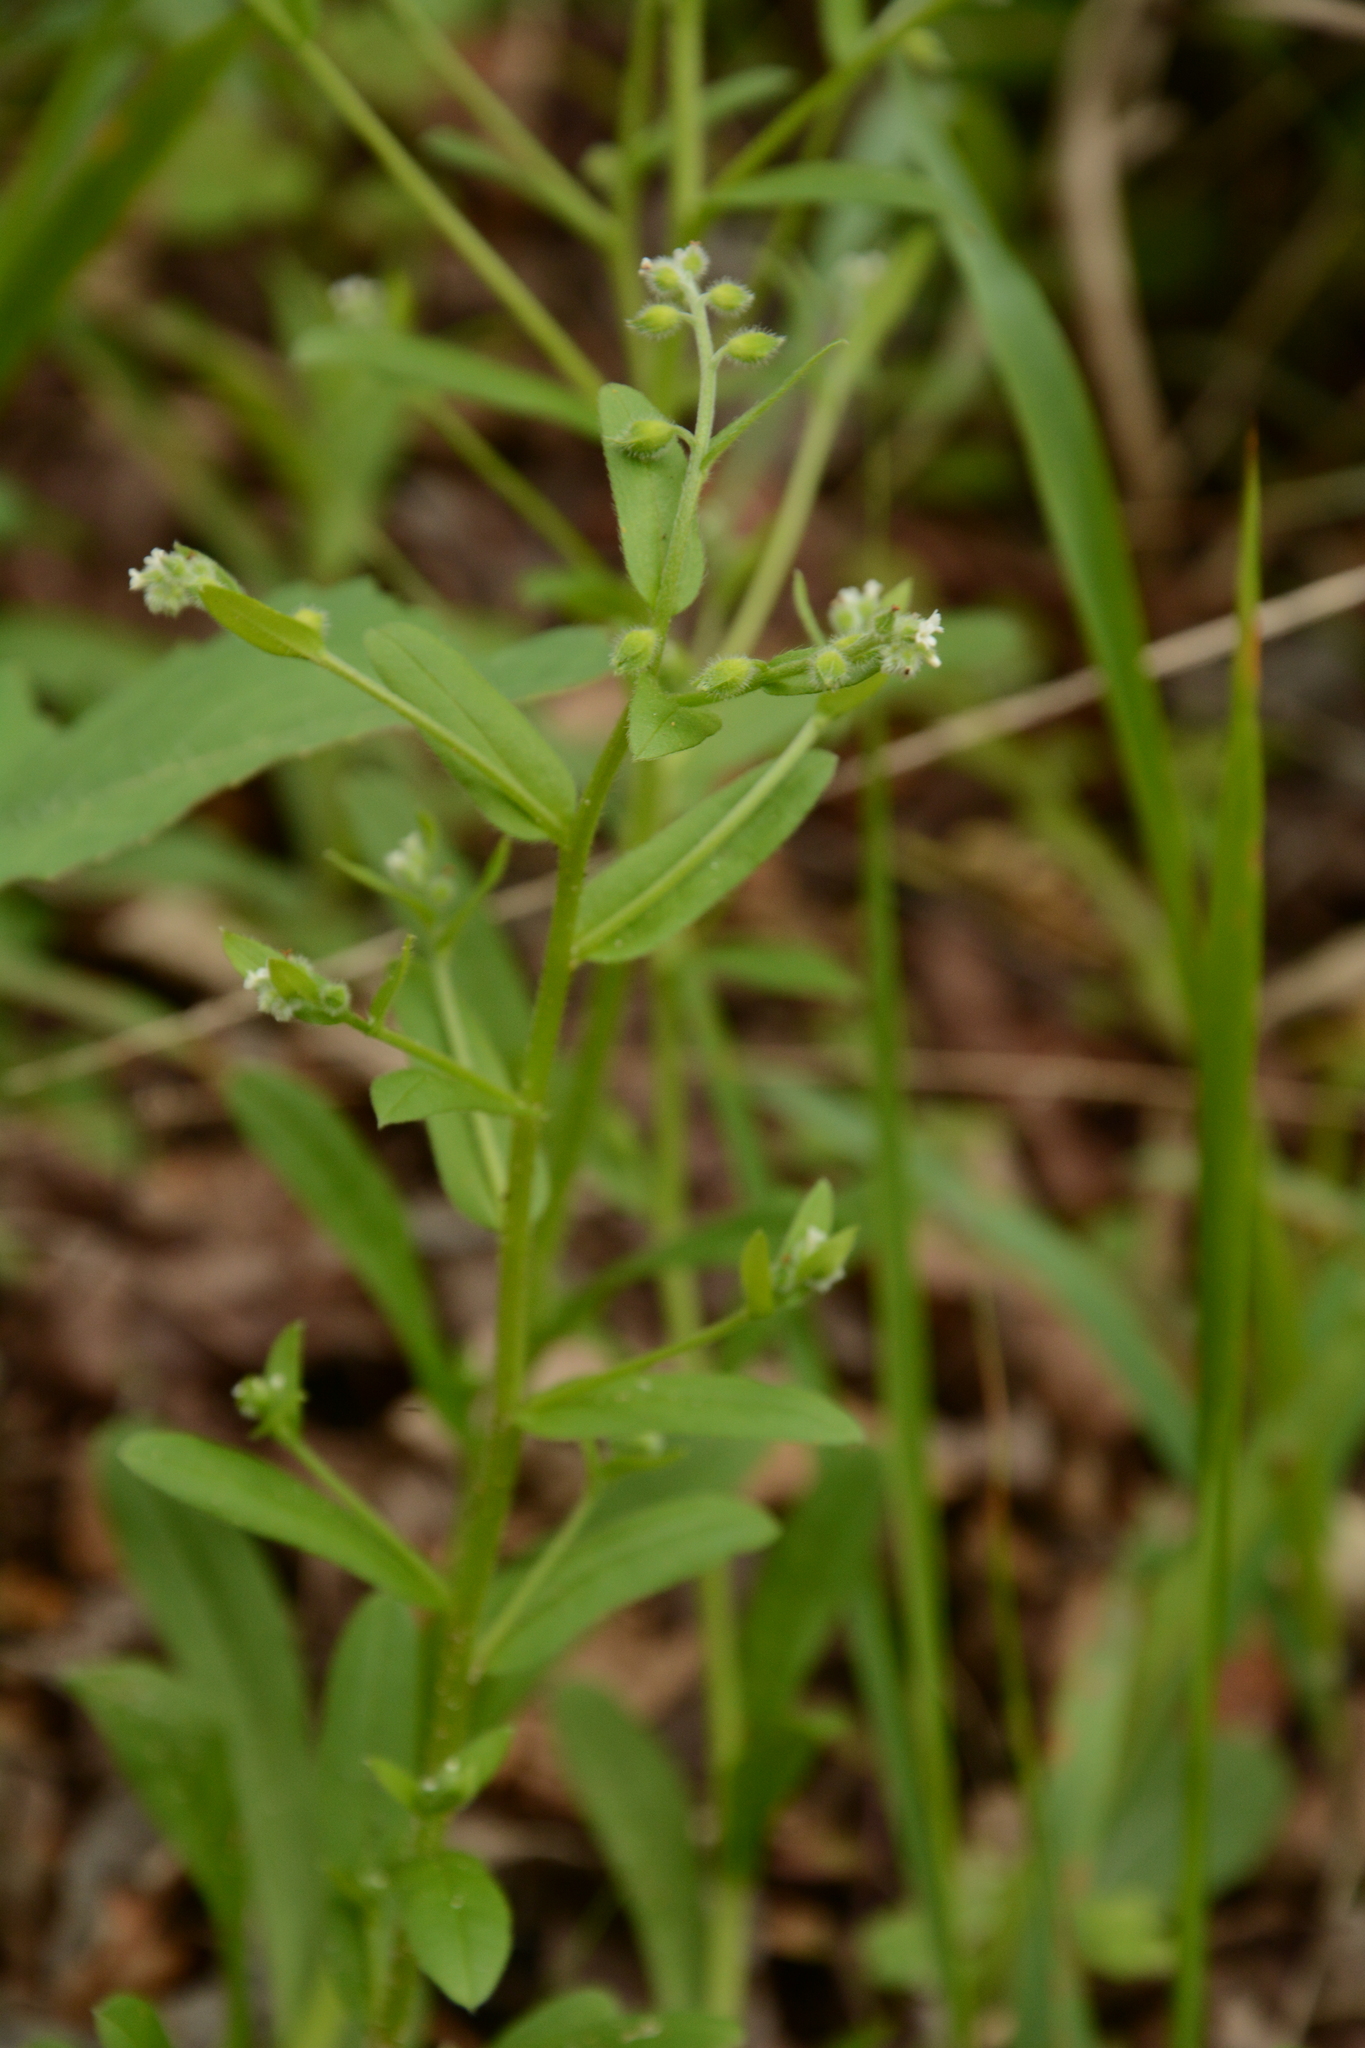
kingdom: Plantae
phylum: Tracheophyta
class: Magnoliopsida
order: Boraginales
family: Boraginaceae
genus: Myosotis
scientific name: Myosotis macrosperma
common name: Large-seed forget-me-not
